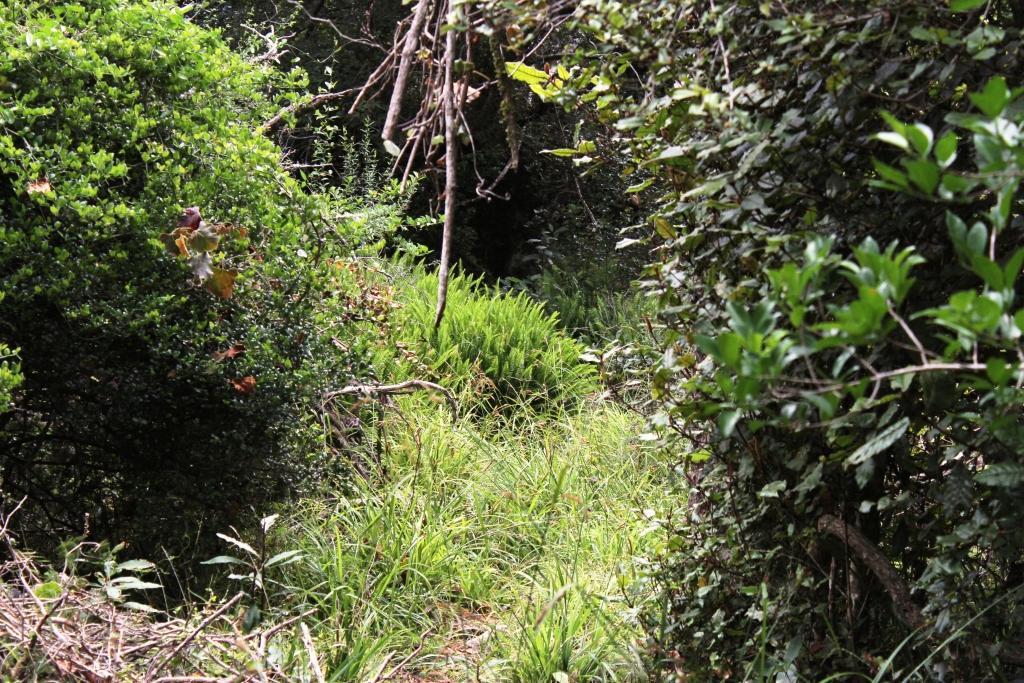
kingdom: Plantae
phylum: Tracheophyta
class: Polypodiopsida
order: Polypodiales
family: Nephrolepidaceae
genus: Nephrolepis
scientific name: Nephrolepis cordifolia
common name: Narrow swordfern
